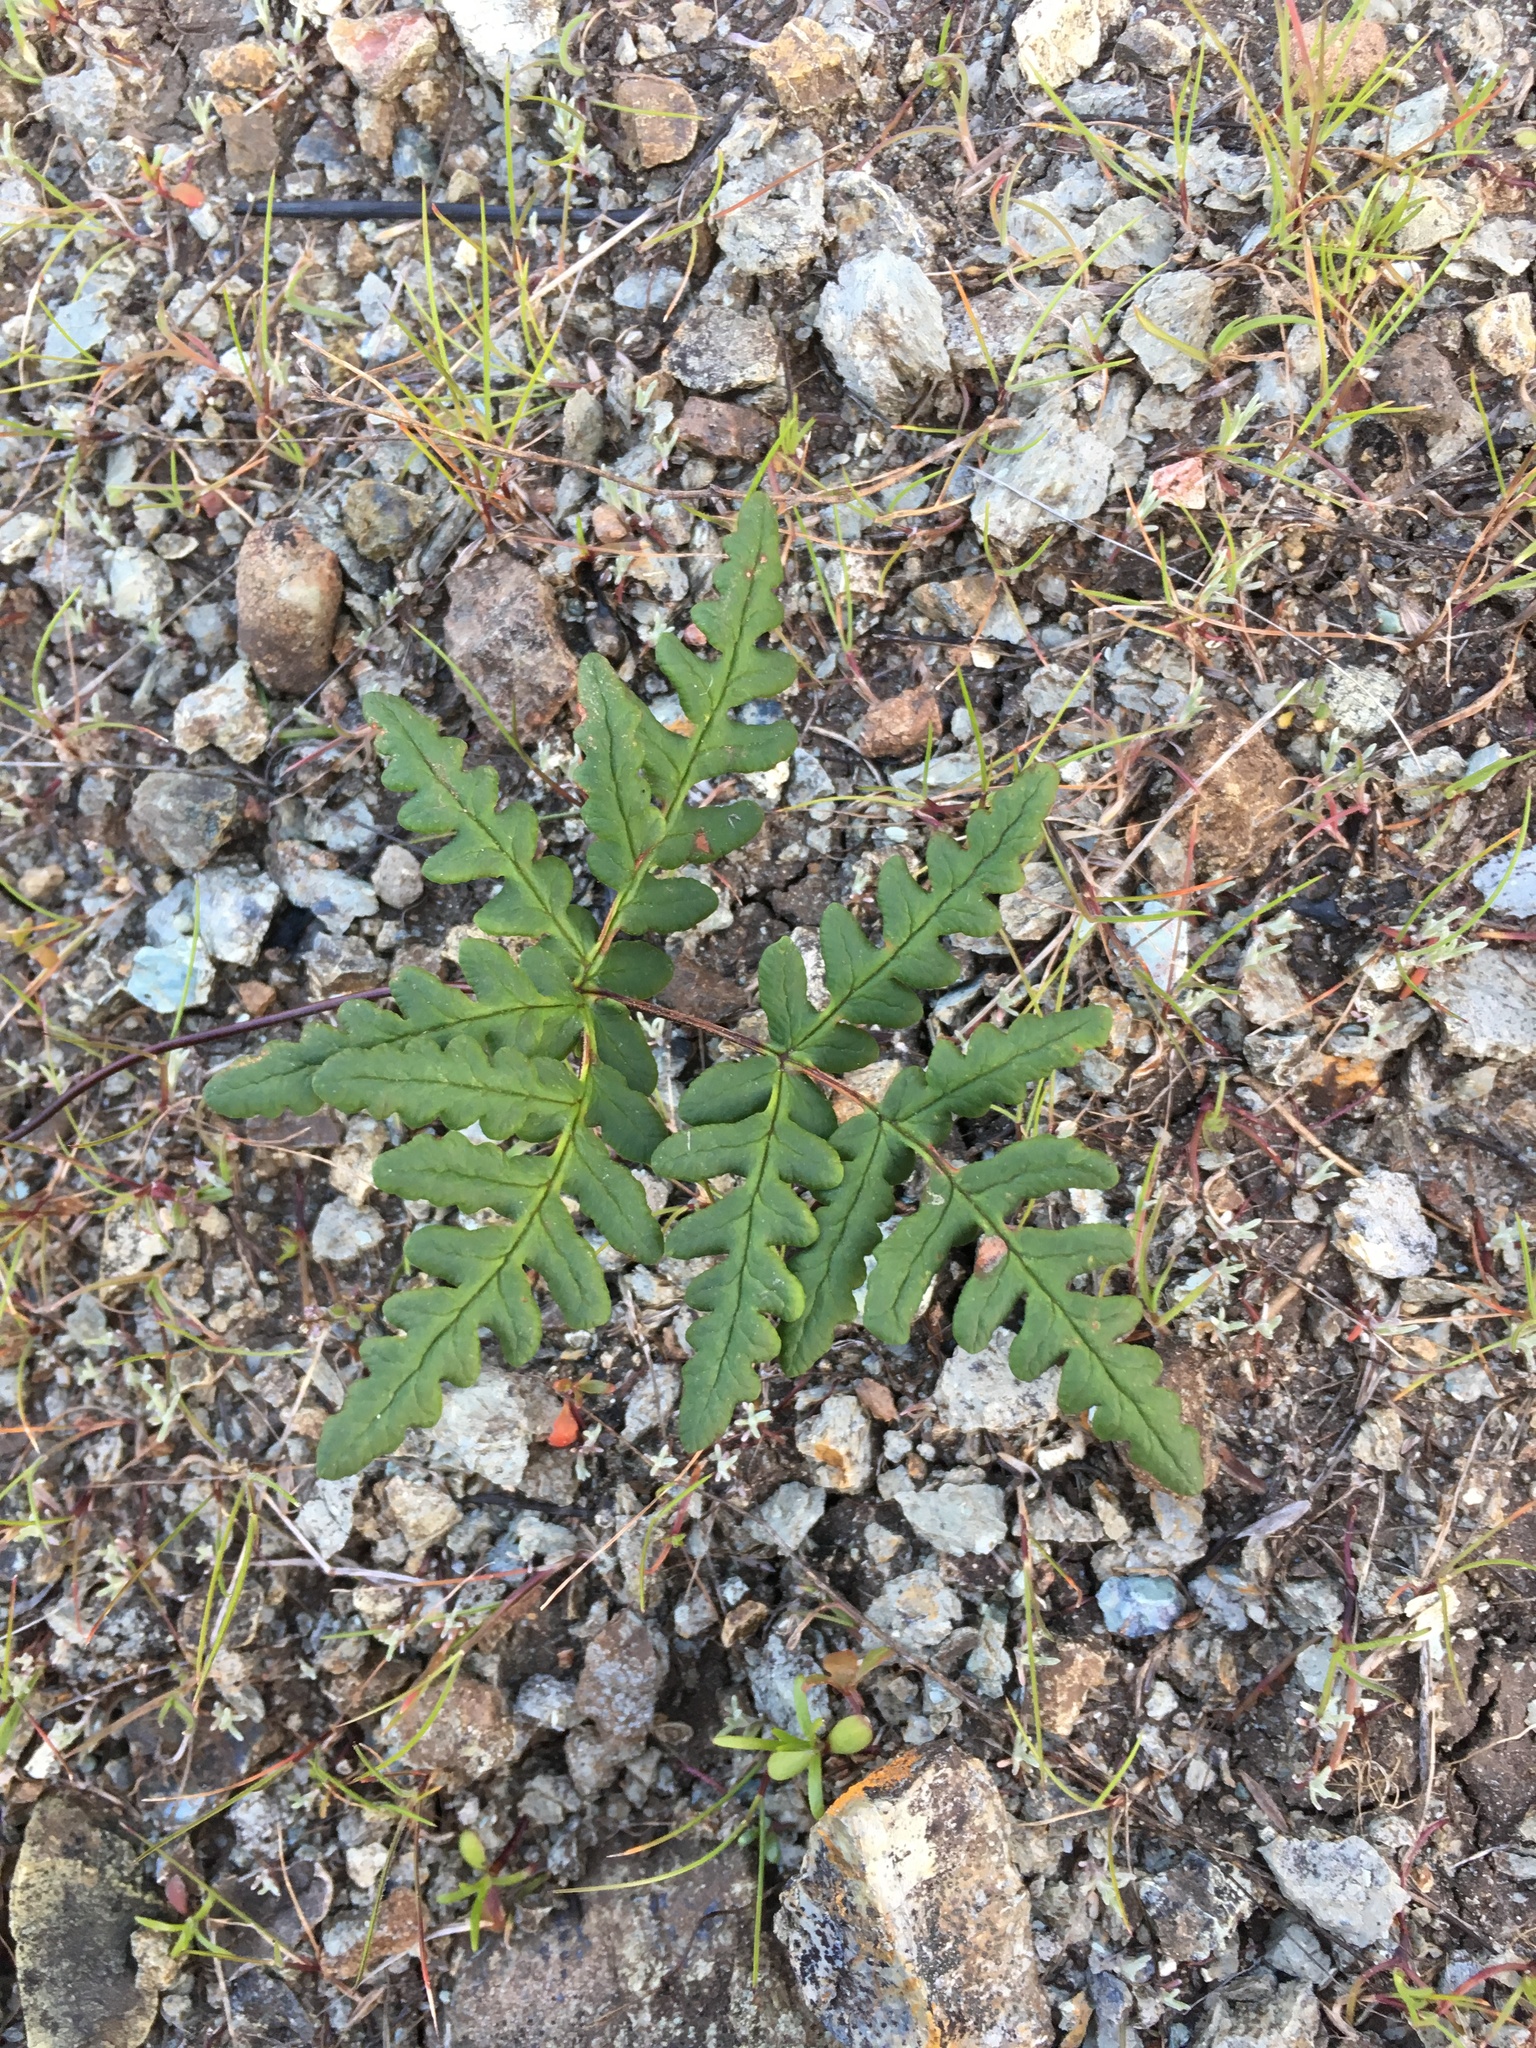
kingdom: Plantae
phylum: Tracheophyta
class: Polypodiopsida
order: Polypodiales
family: Pteridaceae
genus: Pentagramma
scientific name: Pentagramma triangularis
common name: Gold fern
